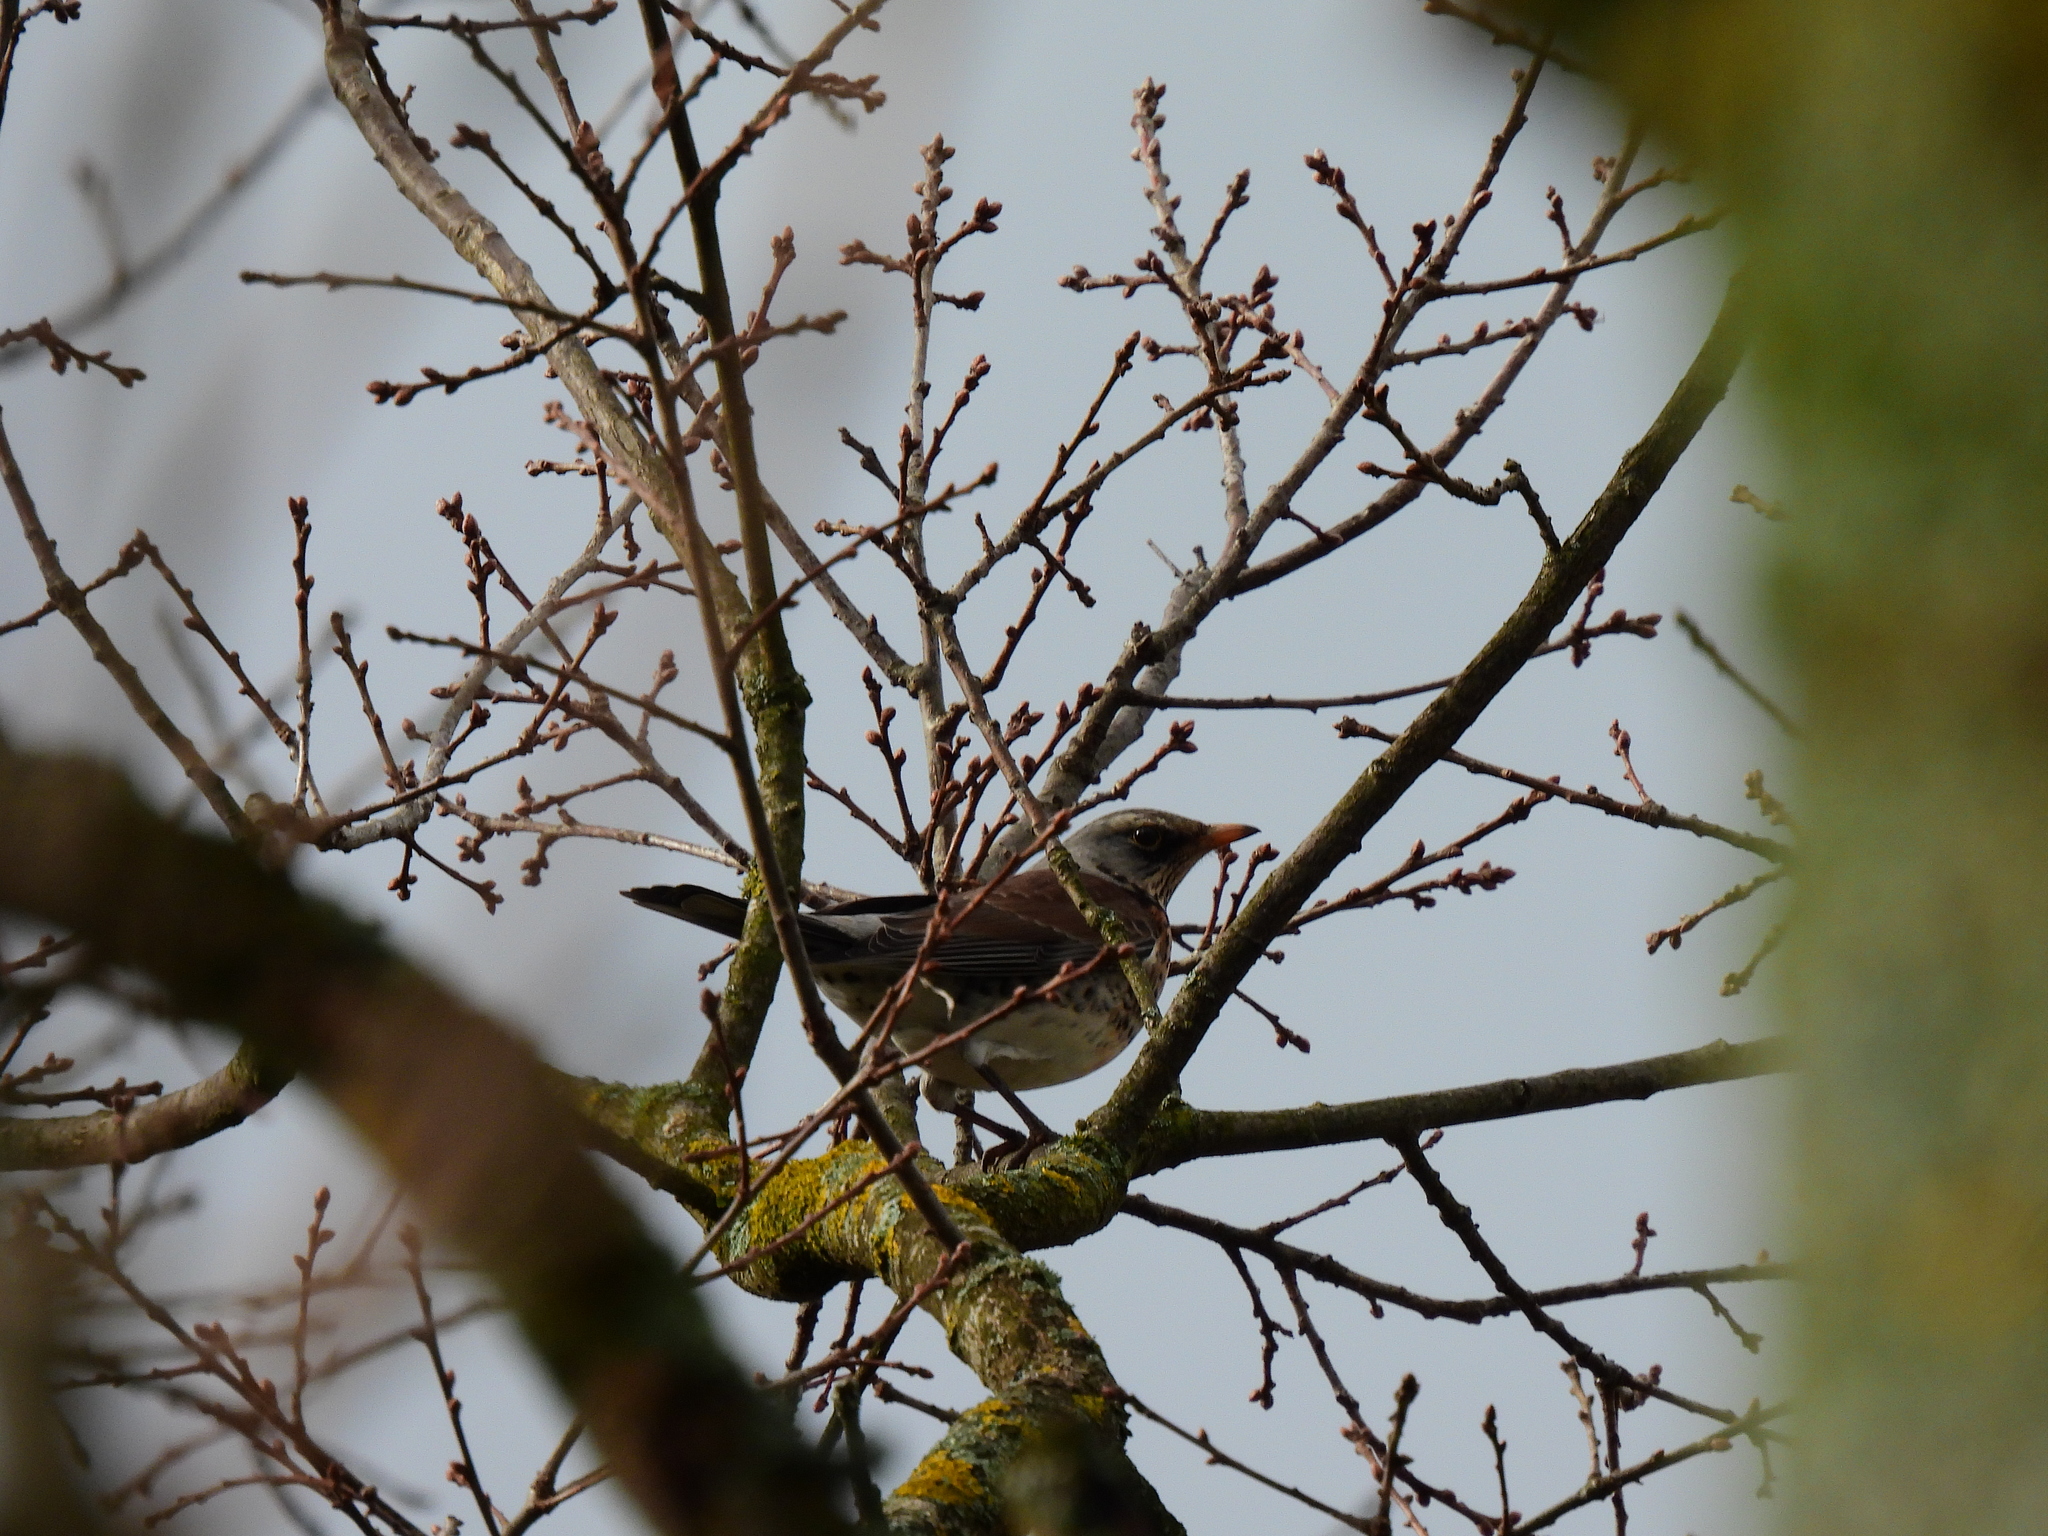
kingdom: Animalia
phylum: Chordata
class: Aves
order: Passeriformes
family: Turdidae
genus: Turdus
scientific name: Turdus pilaris
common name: Fieldfare
